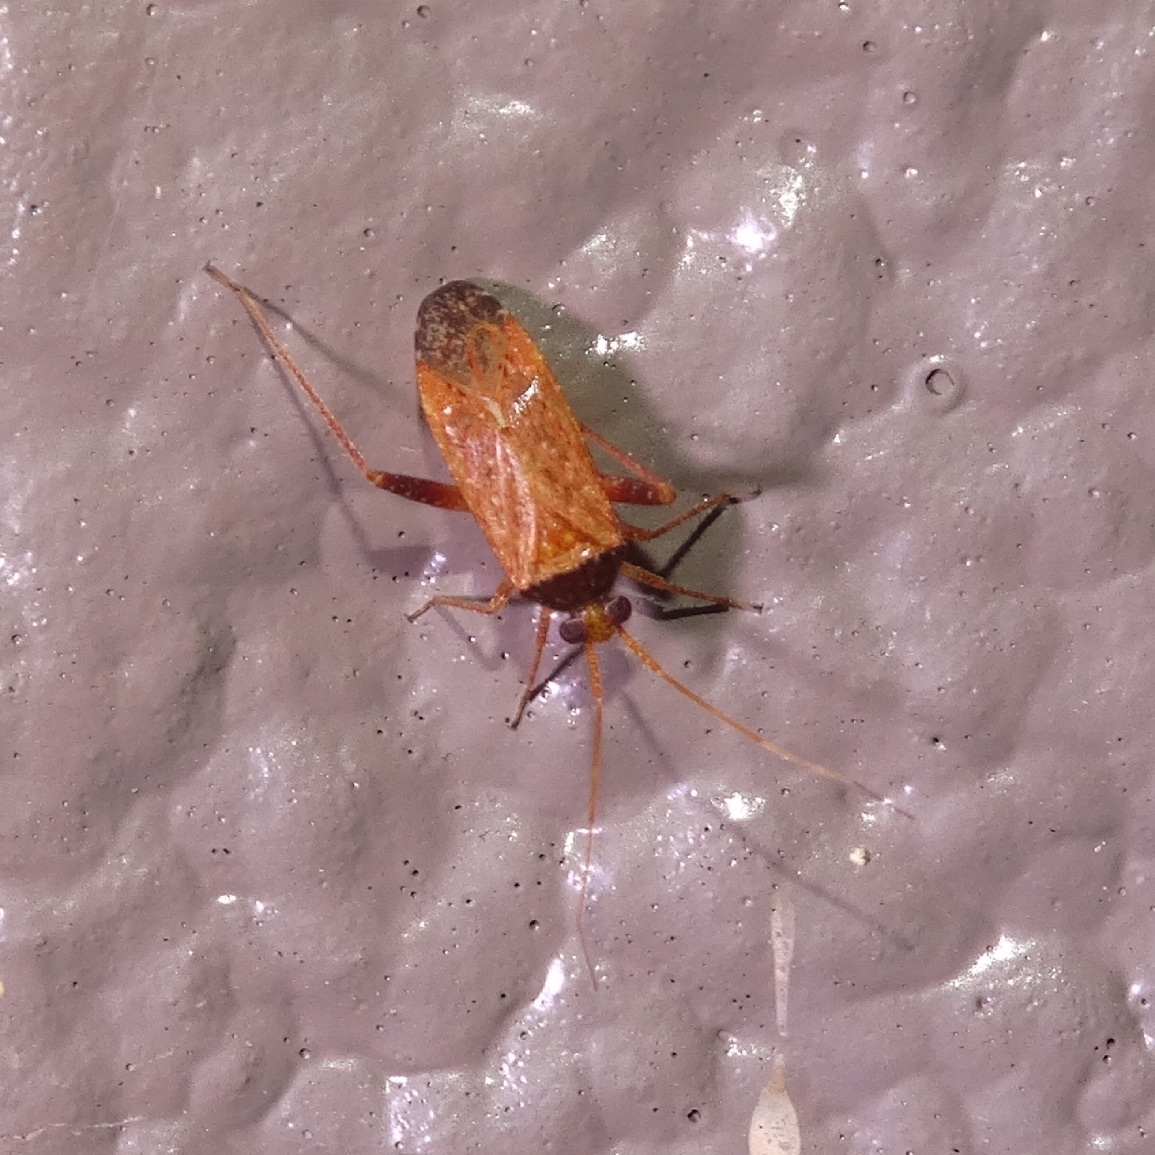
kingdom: Animalia
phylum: Arthropoda
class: Insecta
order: Hemiptera
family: Miridae
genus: Phytocoris
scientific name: Phytocoris ramosus
